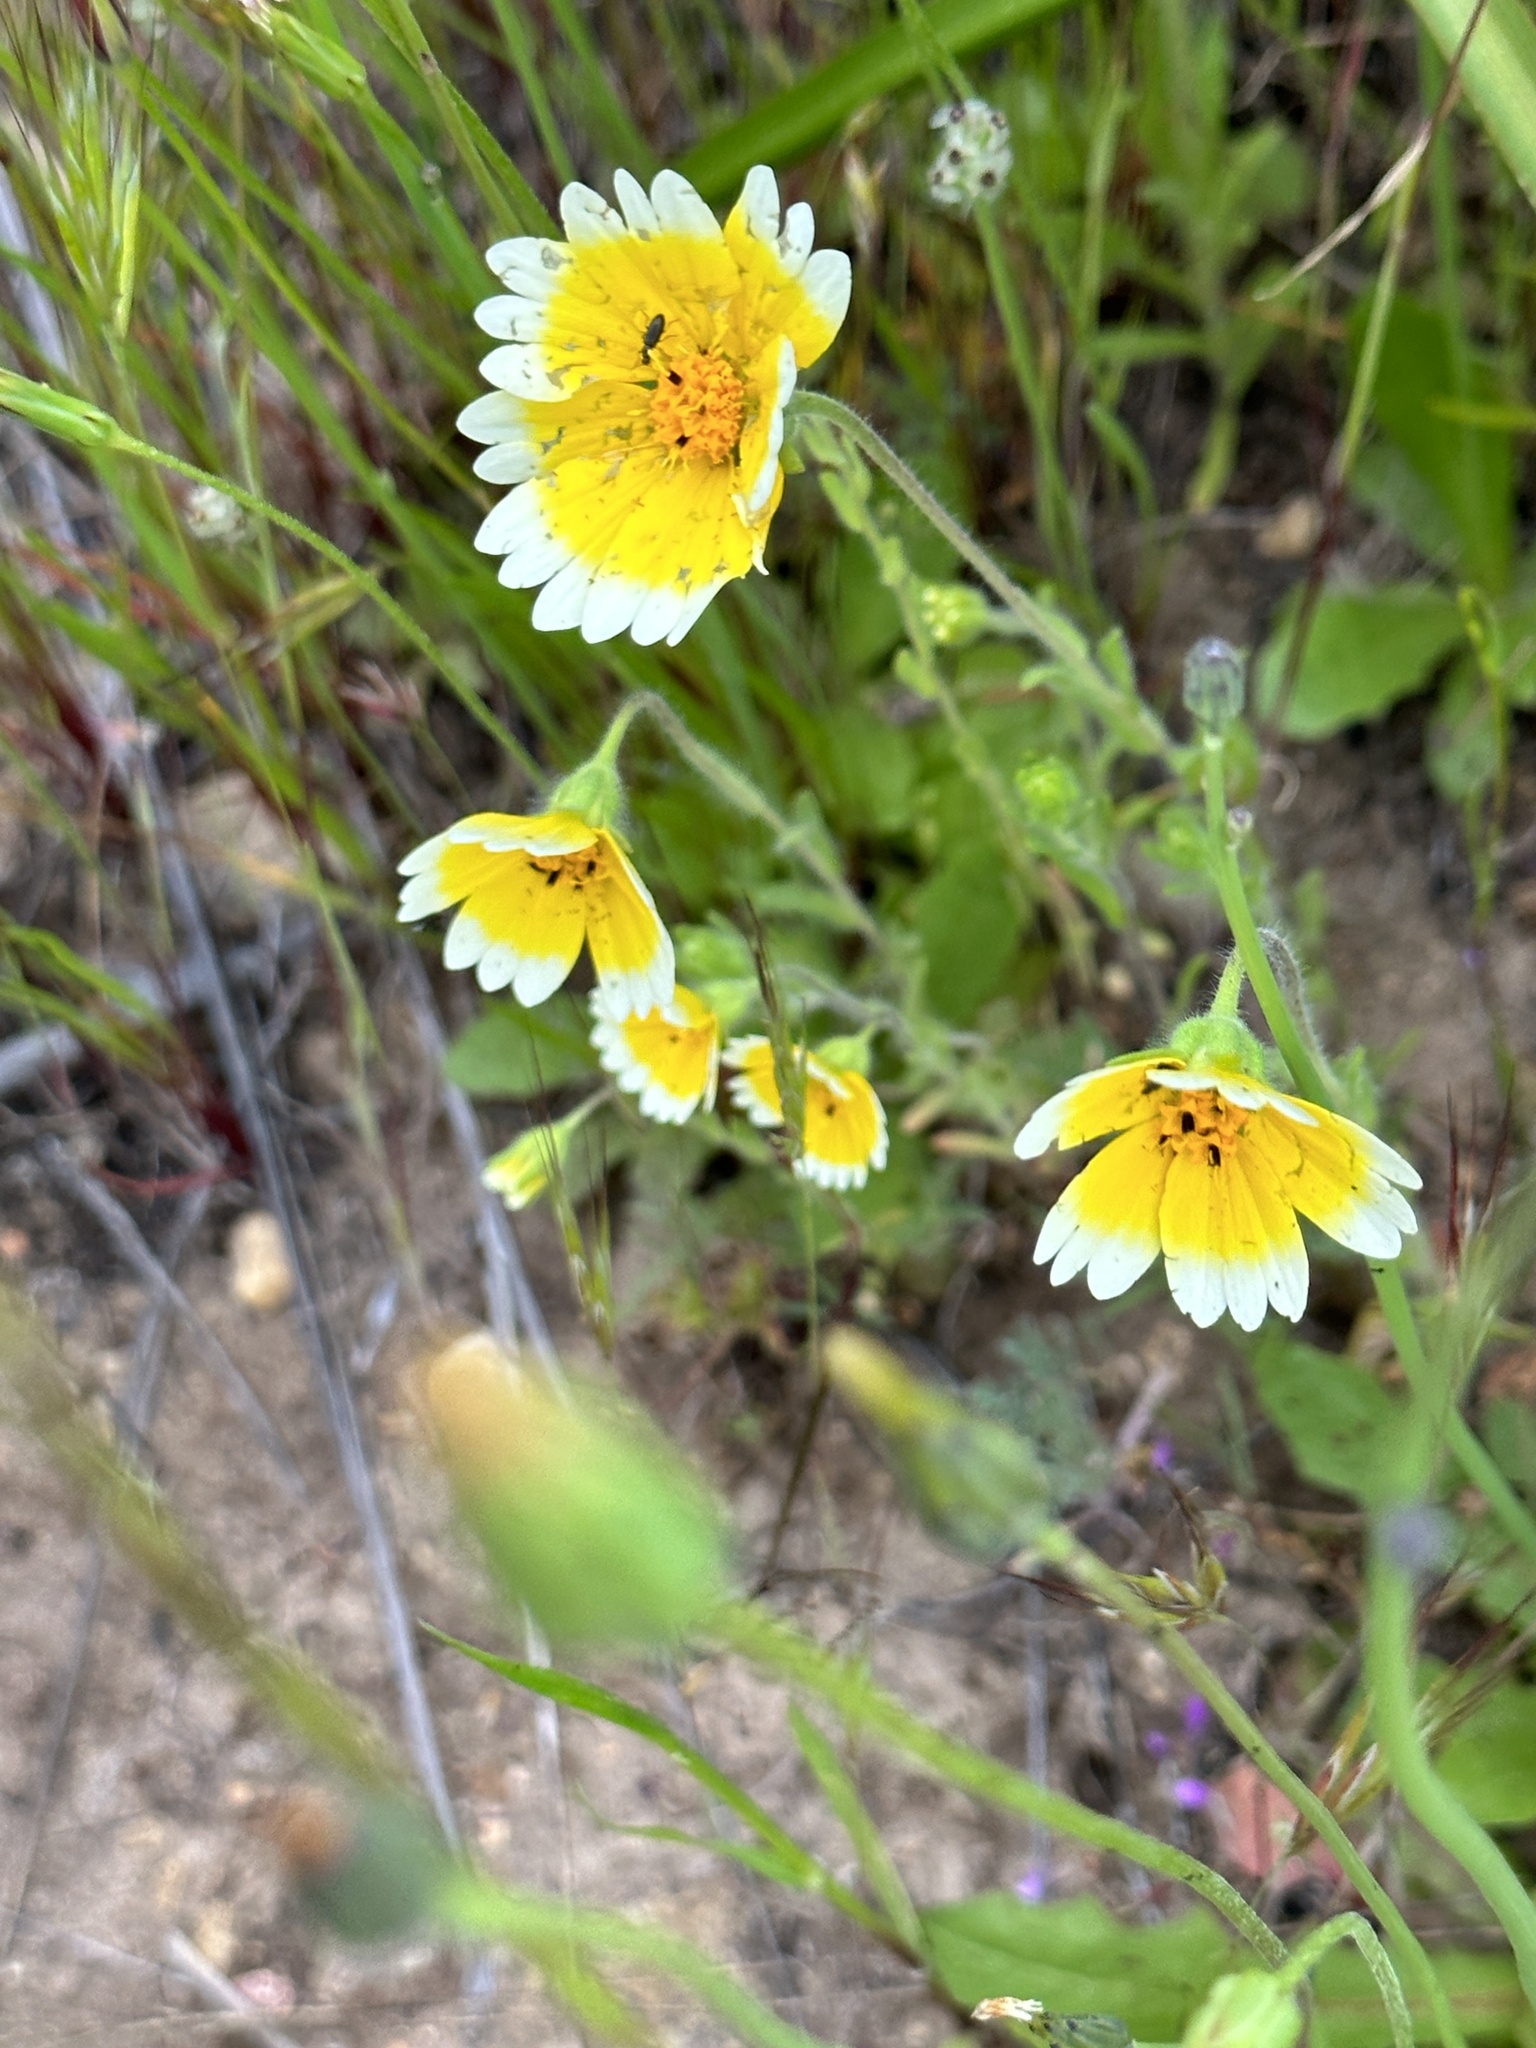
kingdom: Plantae
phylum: Tracheophyta
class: Magnoliopsida
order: Asterales
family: Asteraceae
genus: Layia
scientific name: Layia platyglossa
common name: Tidy-tips
